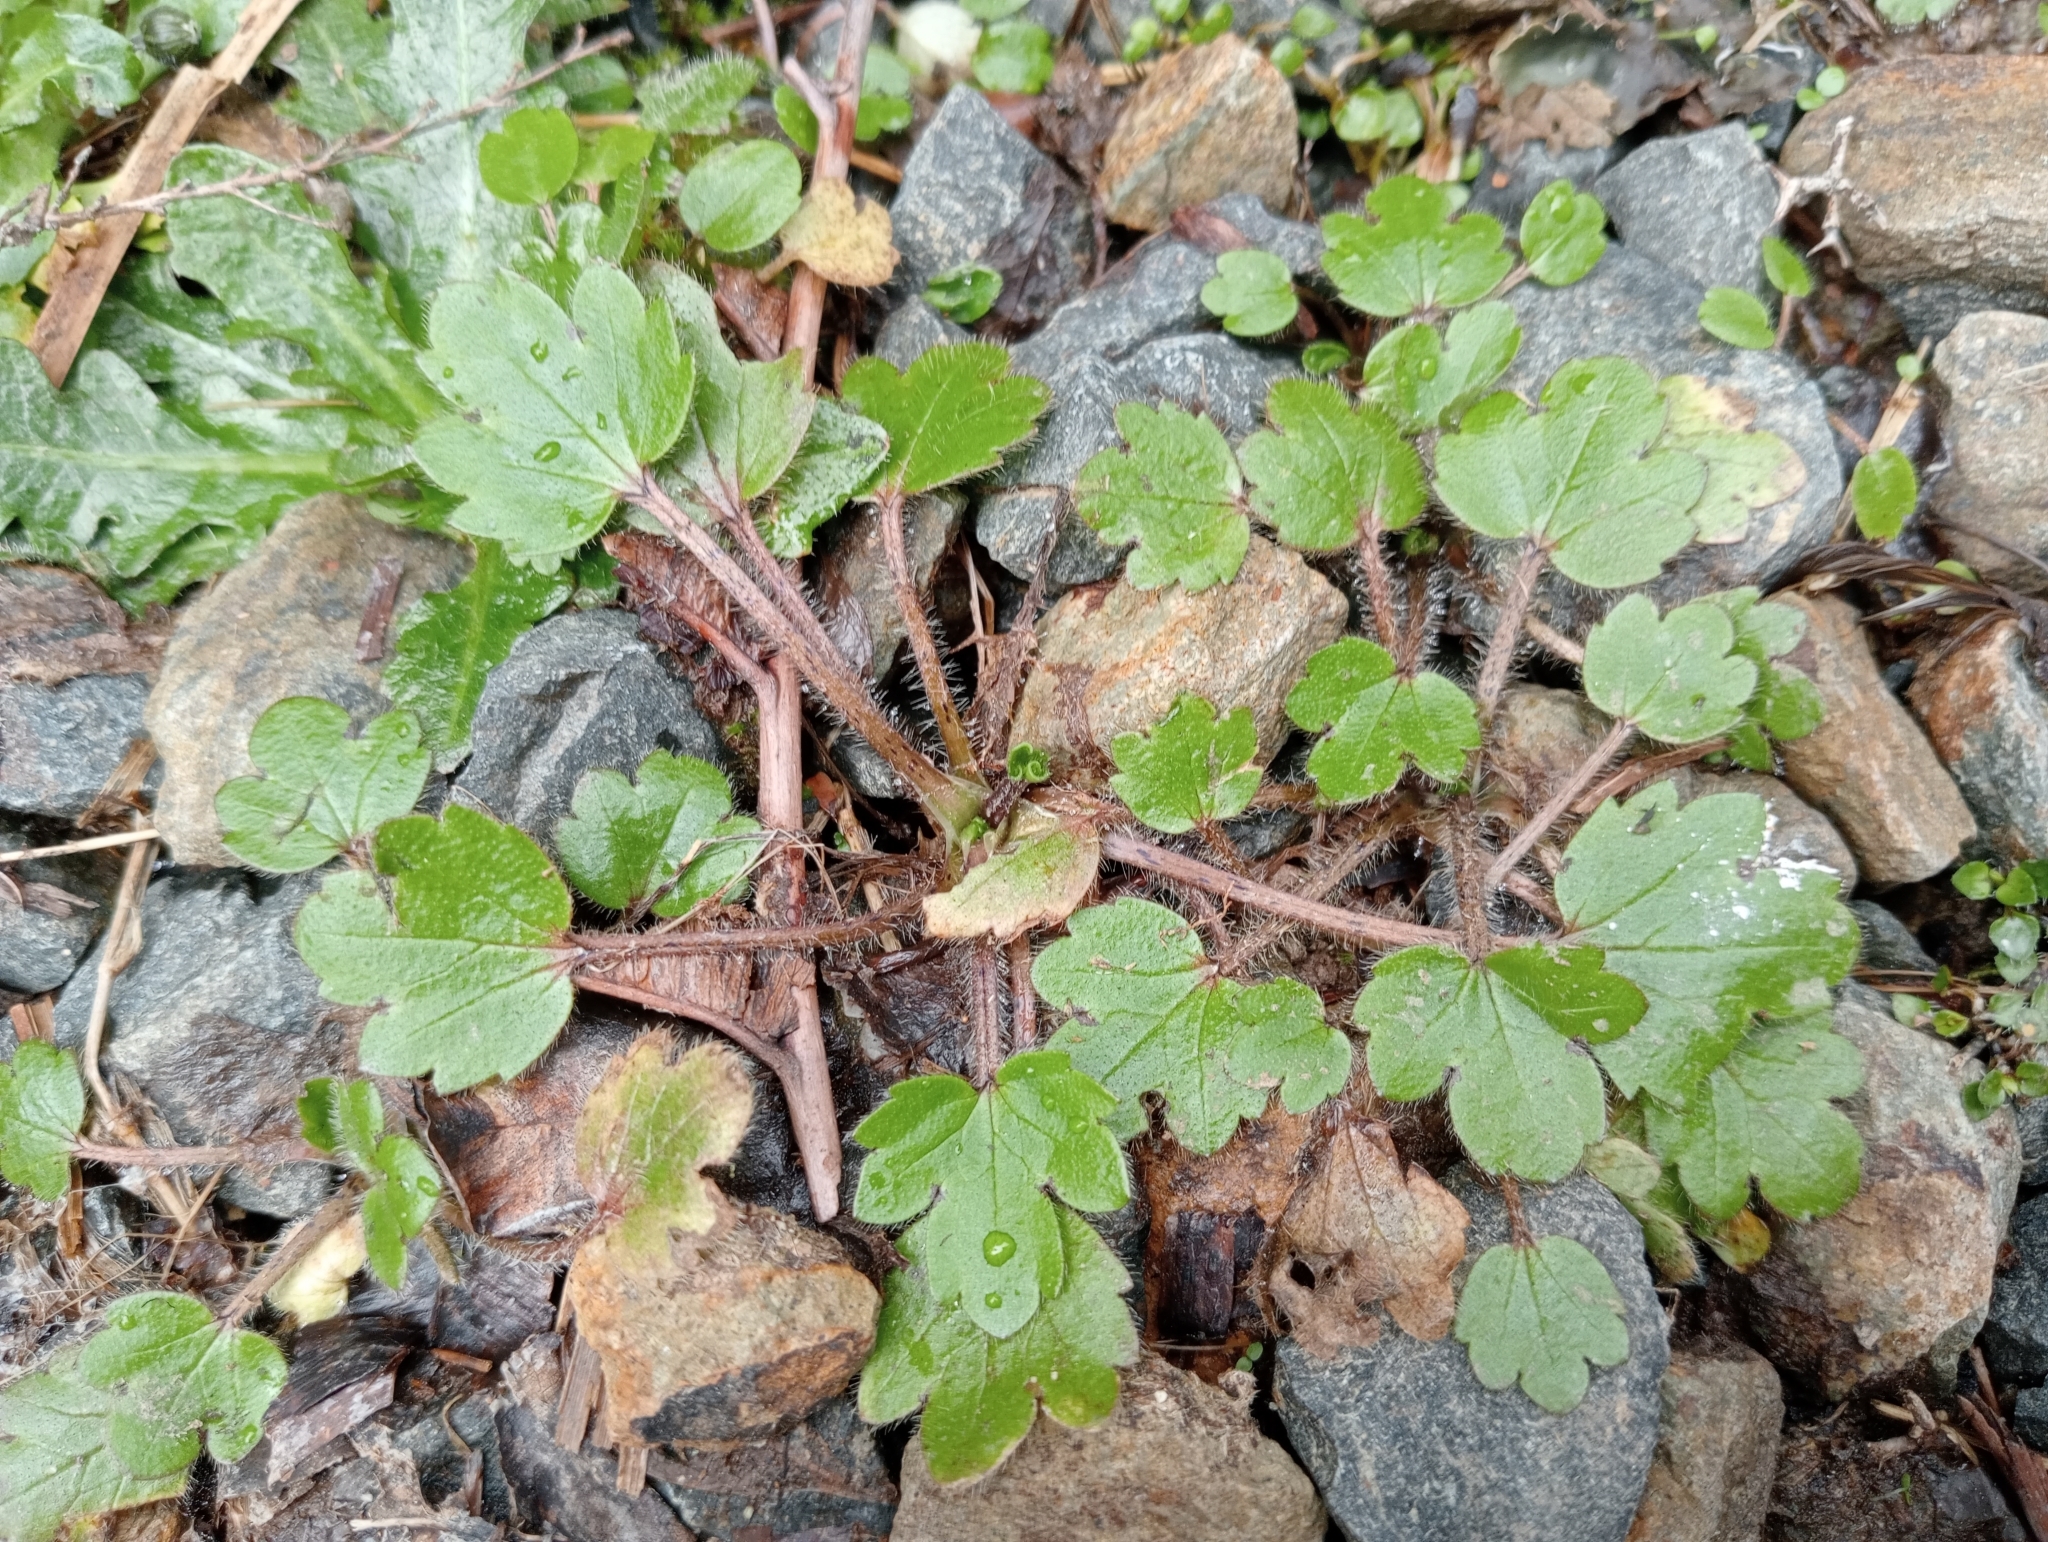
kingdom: Plantae
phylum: Tracheophyta
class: Magnoliopsida
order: Ranunculales
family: Ranunculaceae
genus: Ranunculus
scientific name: Ranunculus foliosus
